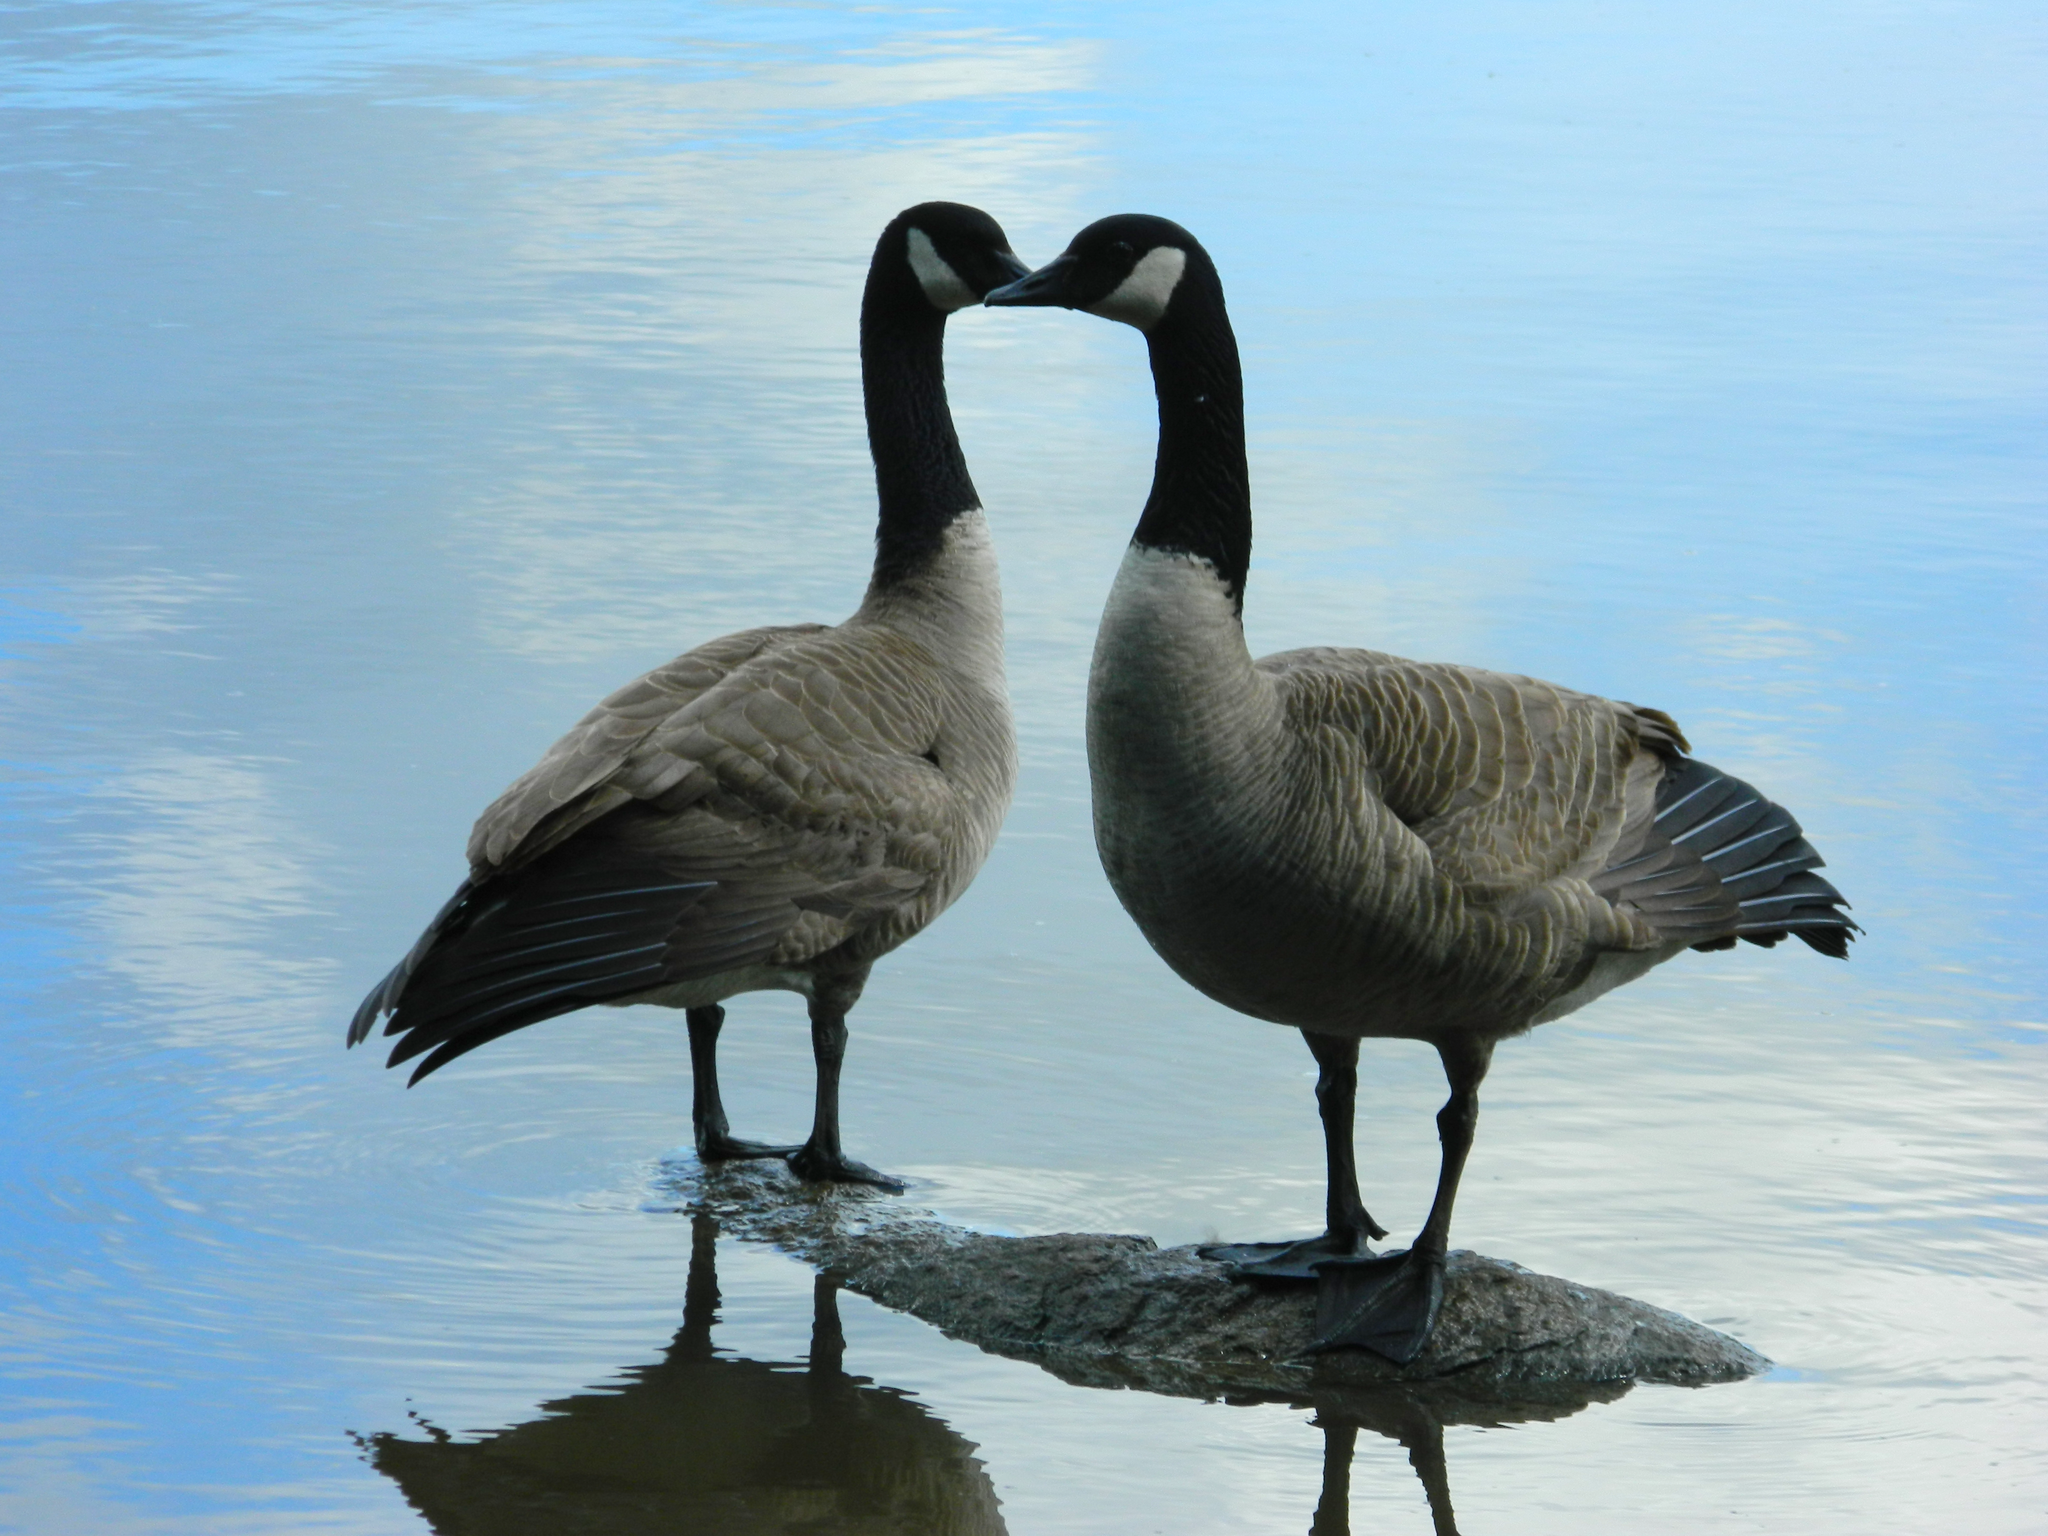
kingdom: Animalia
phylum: Chordata
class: Aves
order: Anseriformes
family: Anatidae
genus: Branta
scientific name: Branta canadensis
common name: Canada goose
